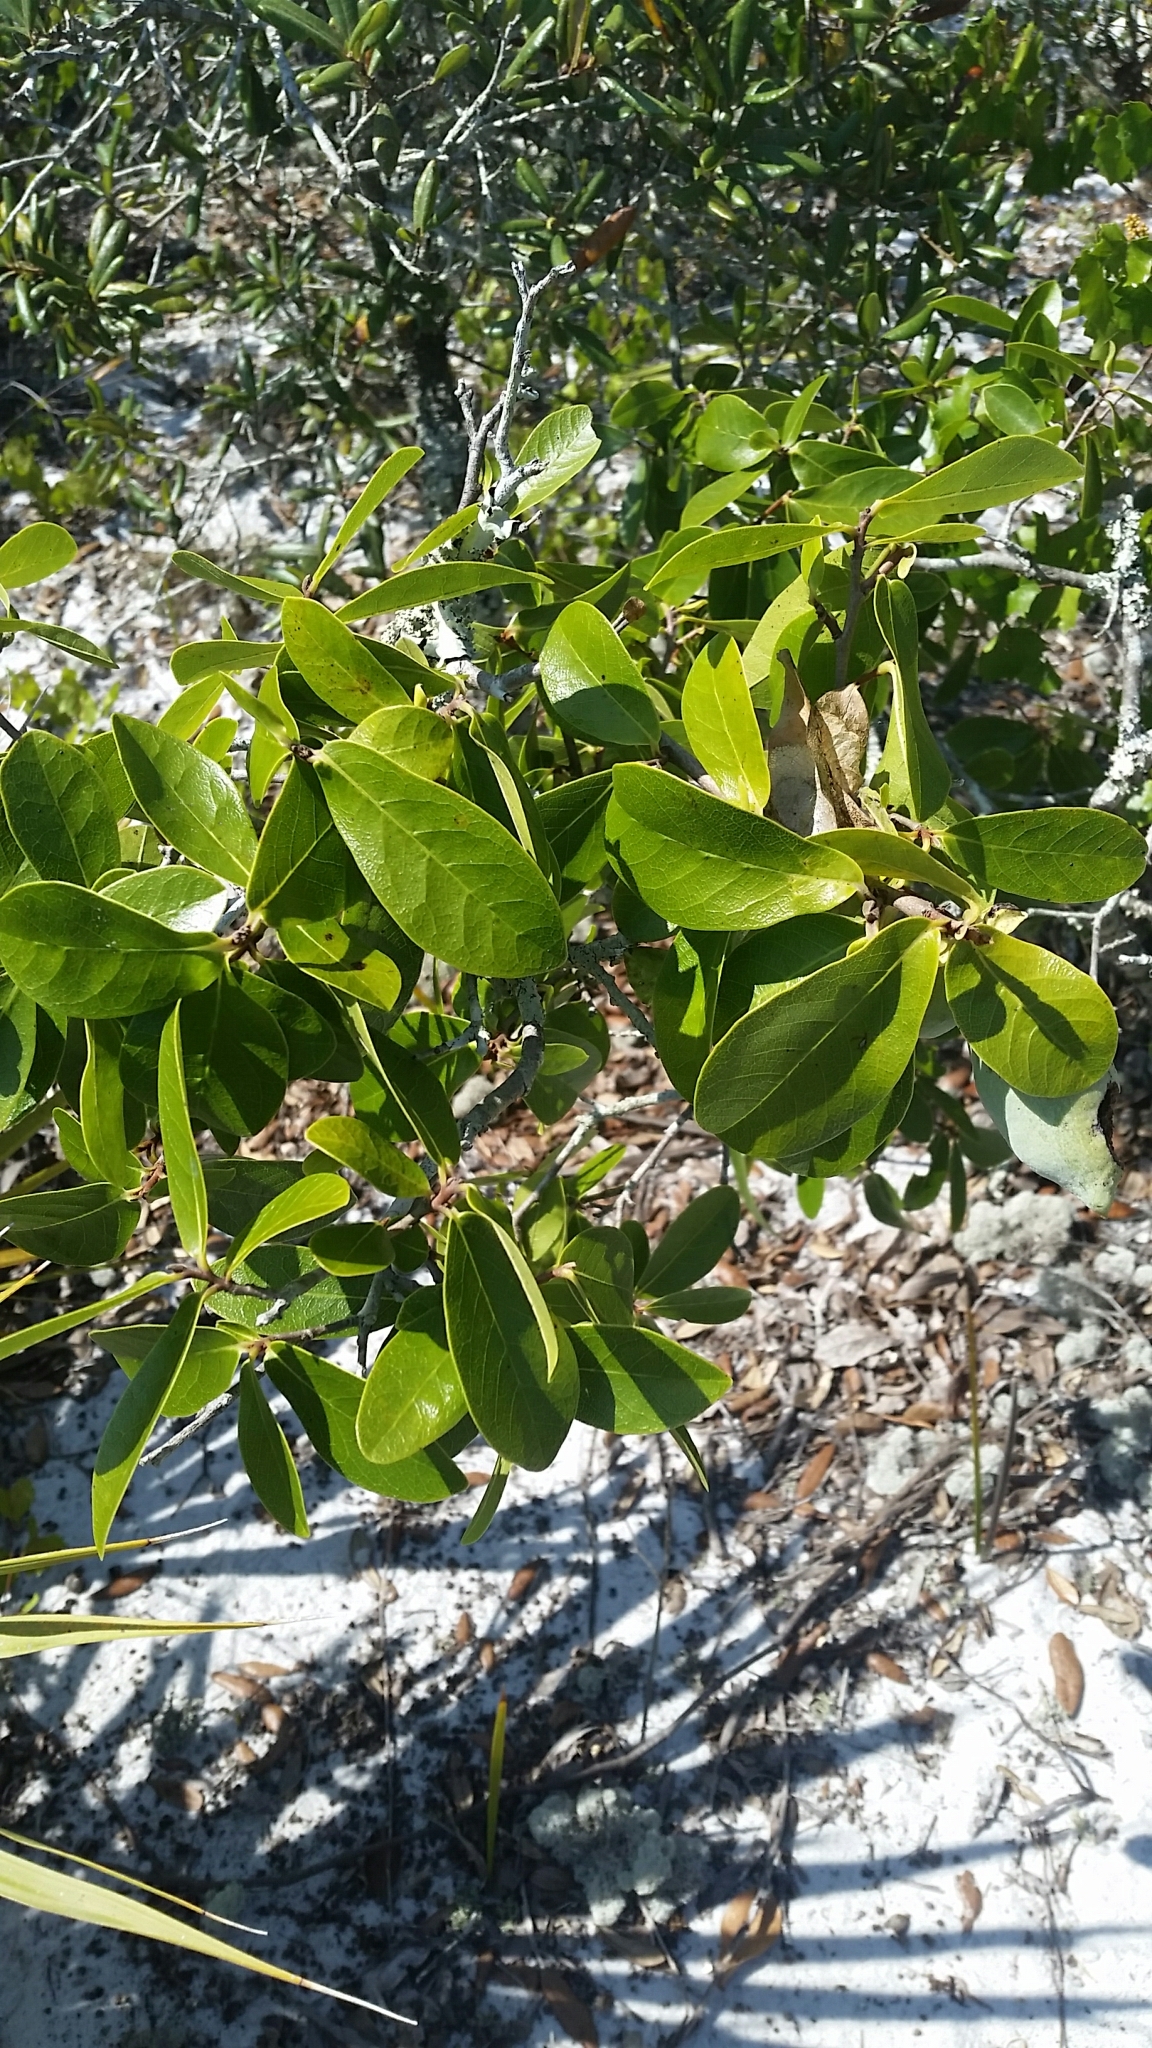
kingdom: Plantae
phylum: Tracheophyta
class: Magnoliopsida
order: Magnoliales
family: Annonaceae
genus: Asimina
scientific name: Asimina obovata
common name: Flag pawpaw
